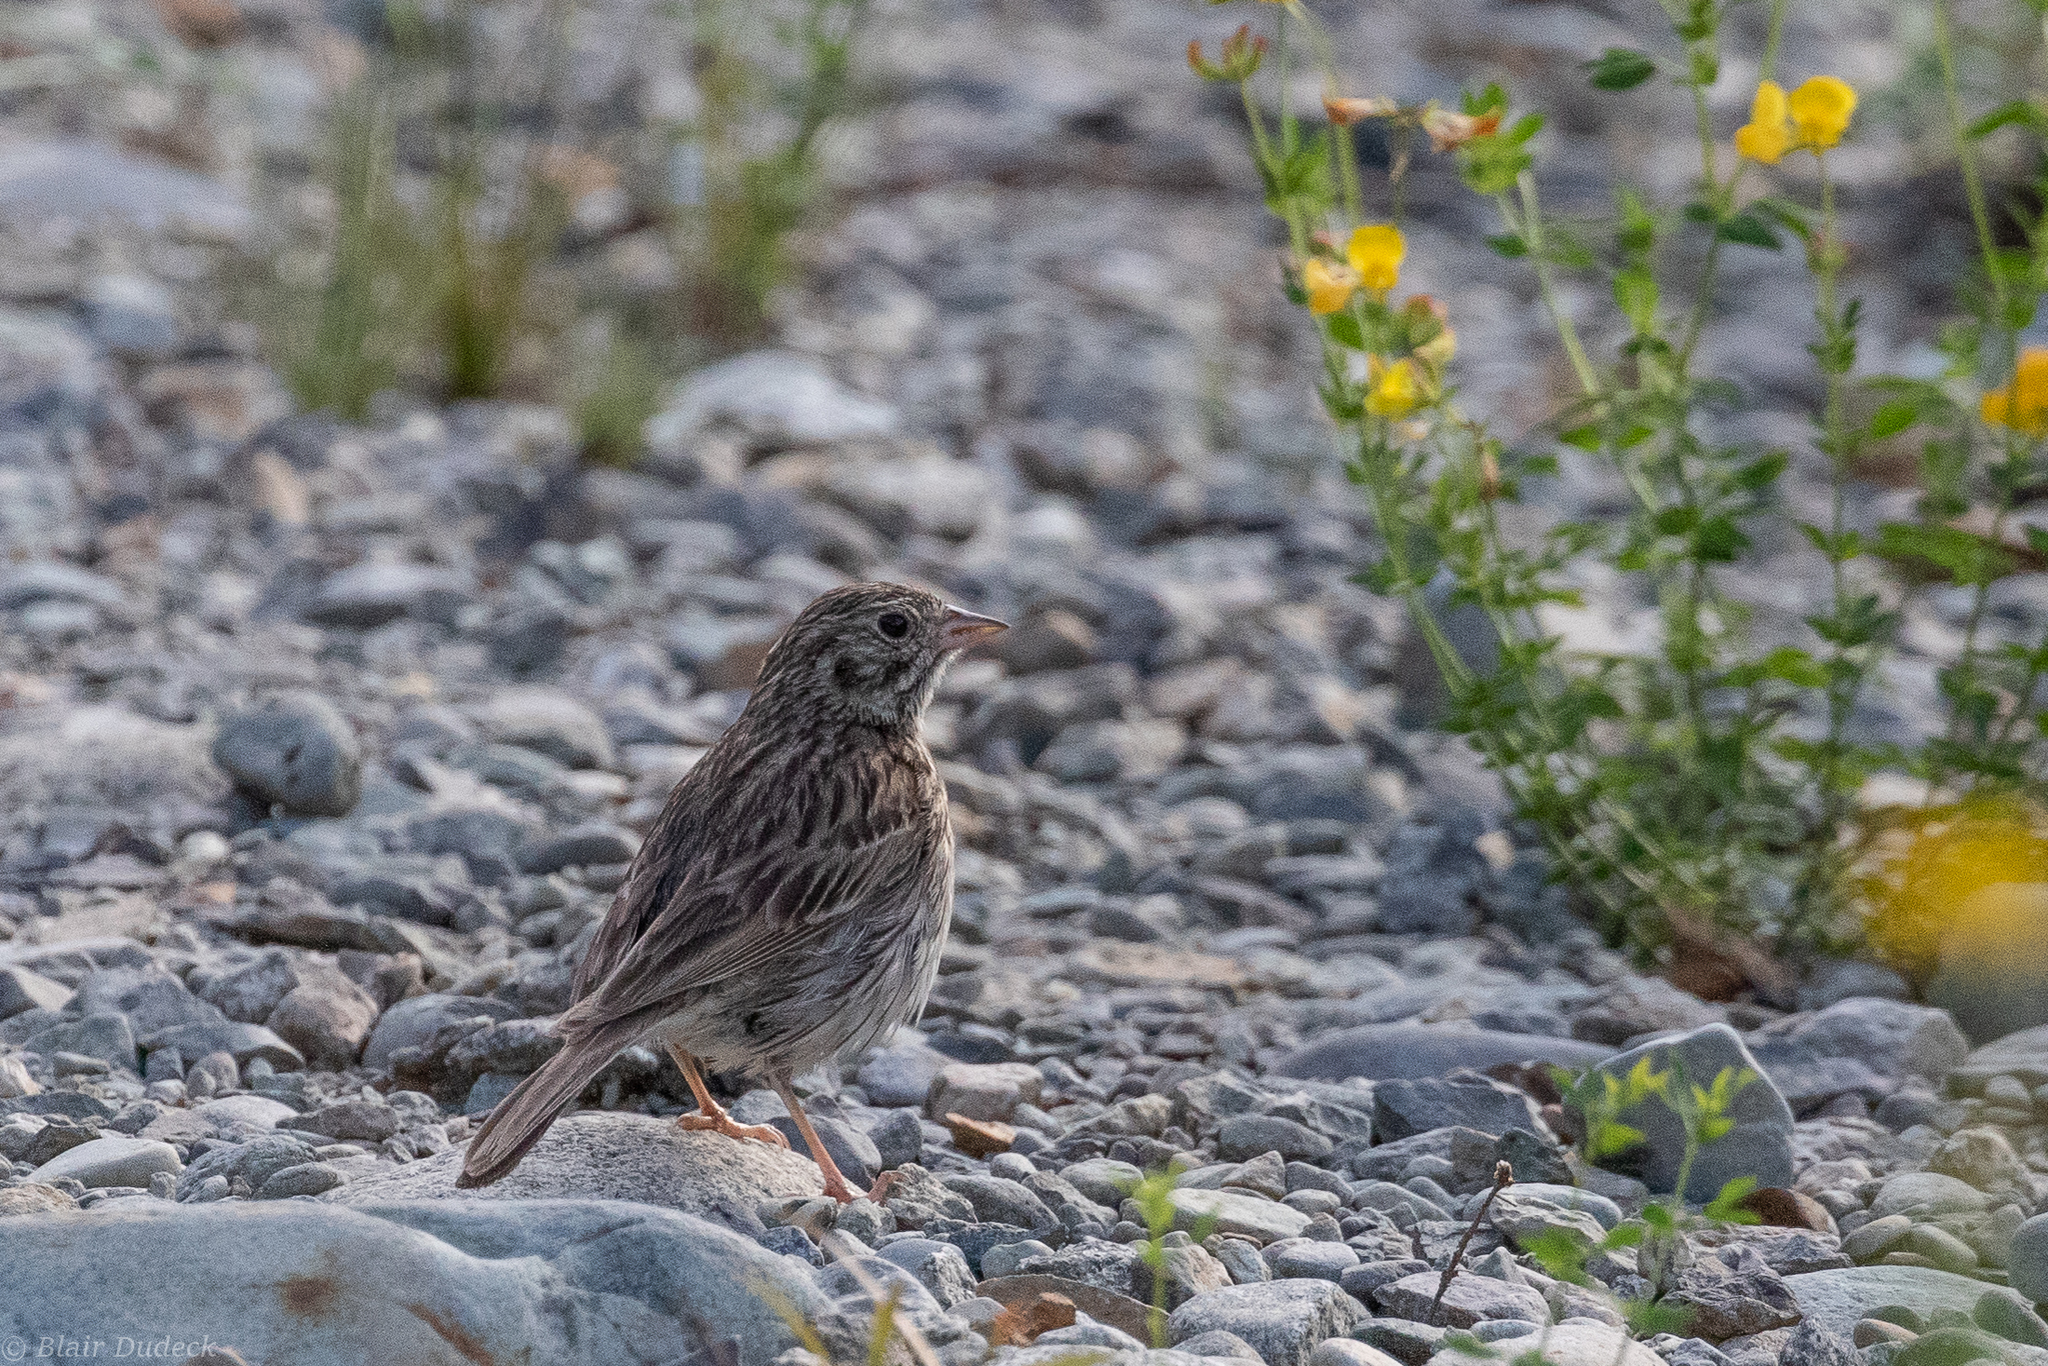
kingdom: Animalia
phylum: Chordata
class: Aves
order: Passeriformes
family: Passerellidae
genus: Pooecetes
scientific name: Pooecetes gramineus
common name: Vesper sparrow
